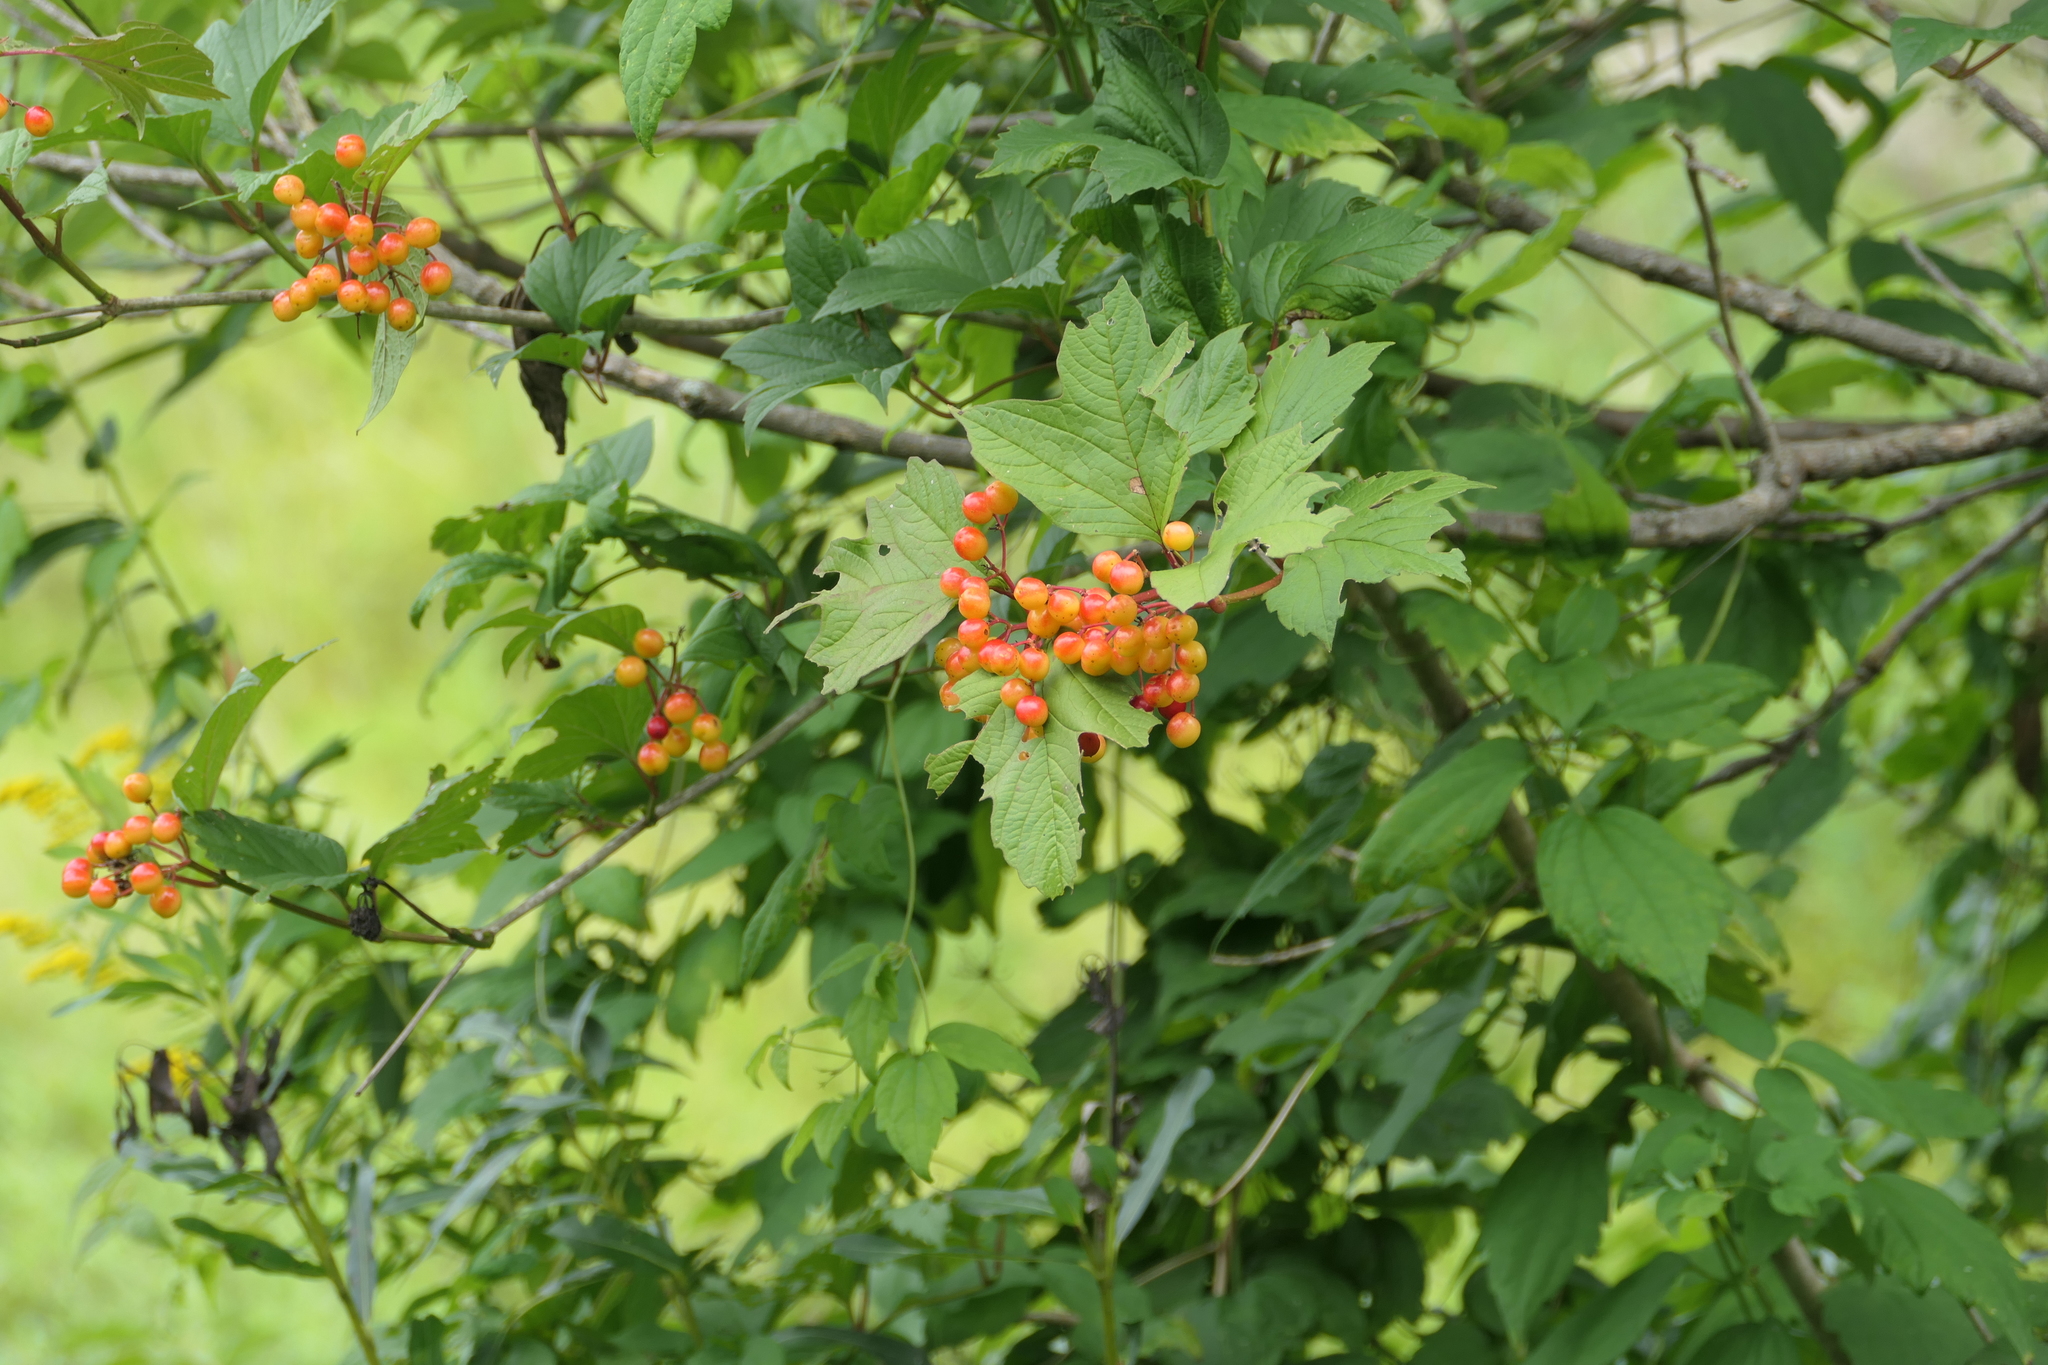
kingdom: Plantae
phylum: Tracheophyta
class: Magnoliopsida
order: Dipsacales
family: Viburnaceae
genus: Viburnum
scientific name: Viburnum opulus
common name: Guelder-rose
